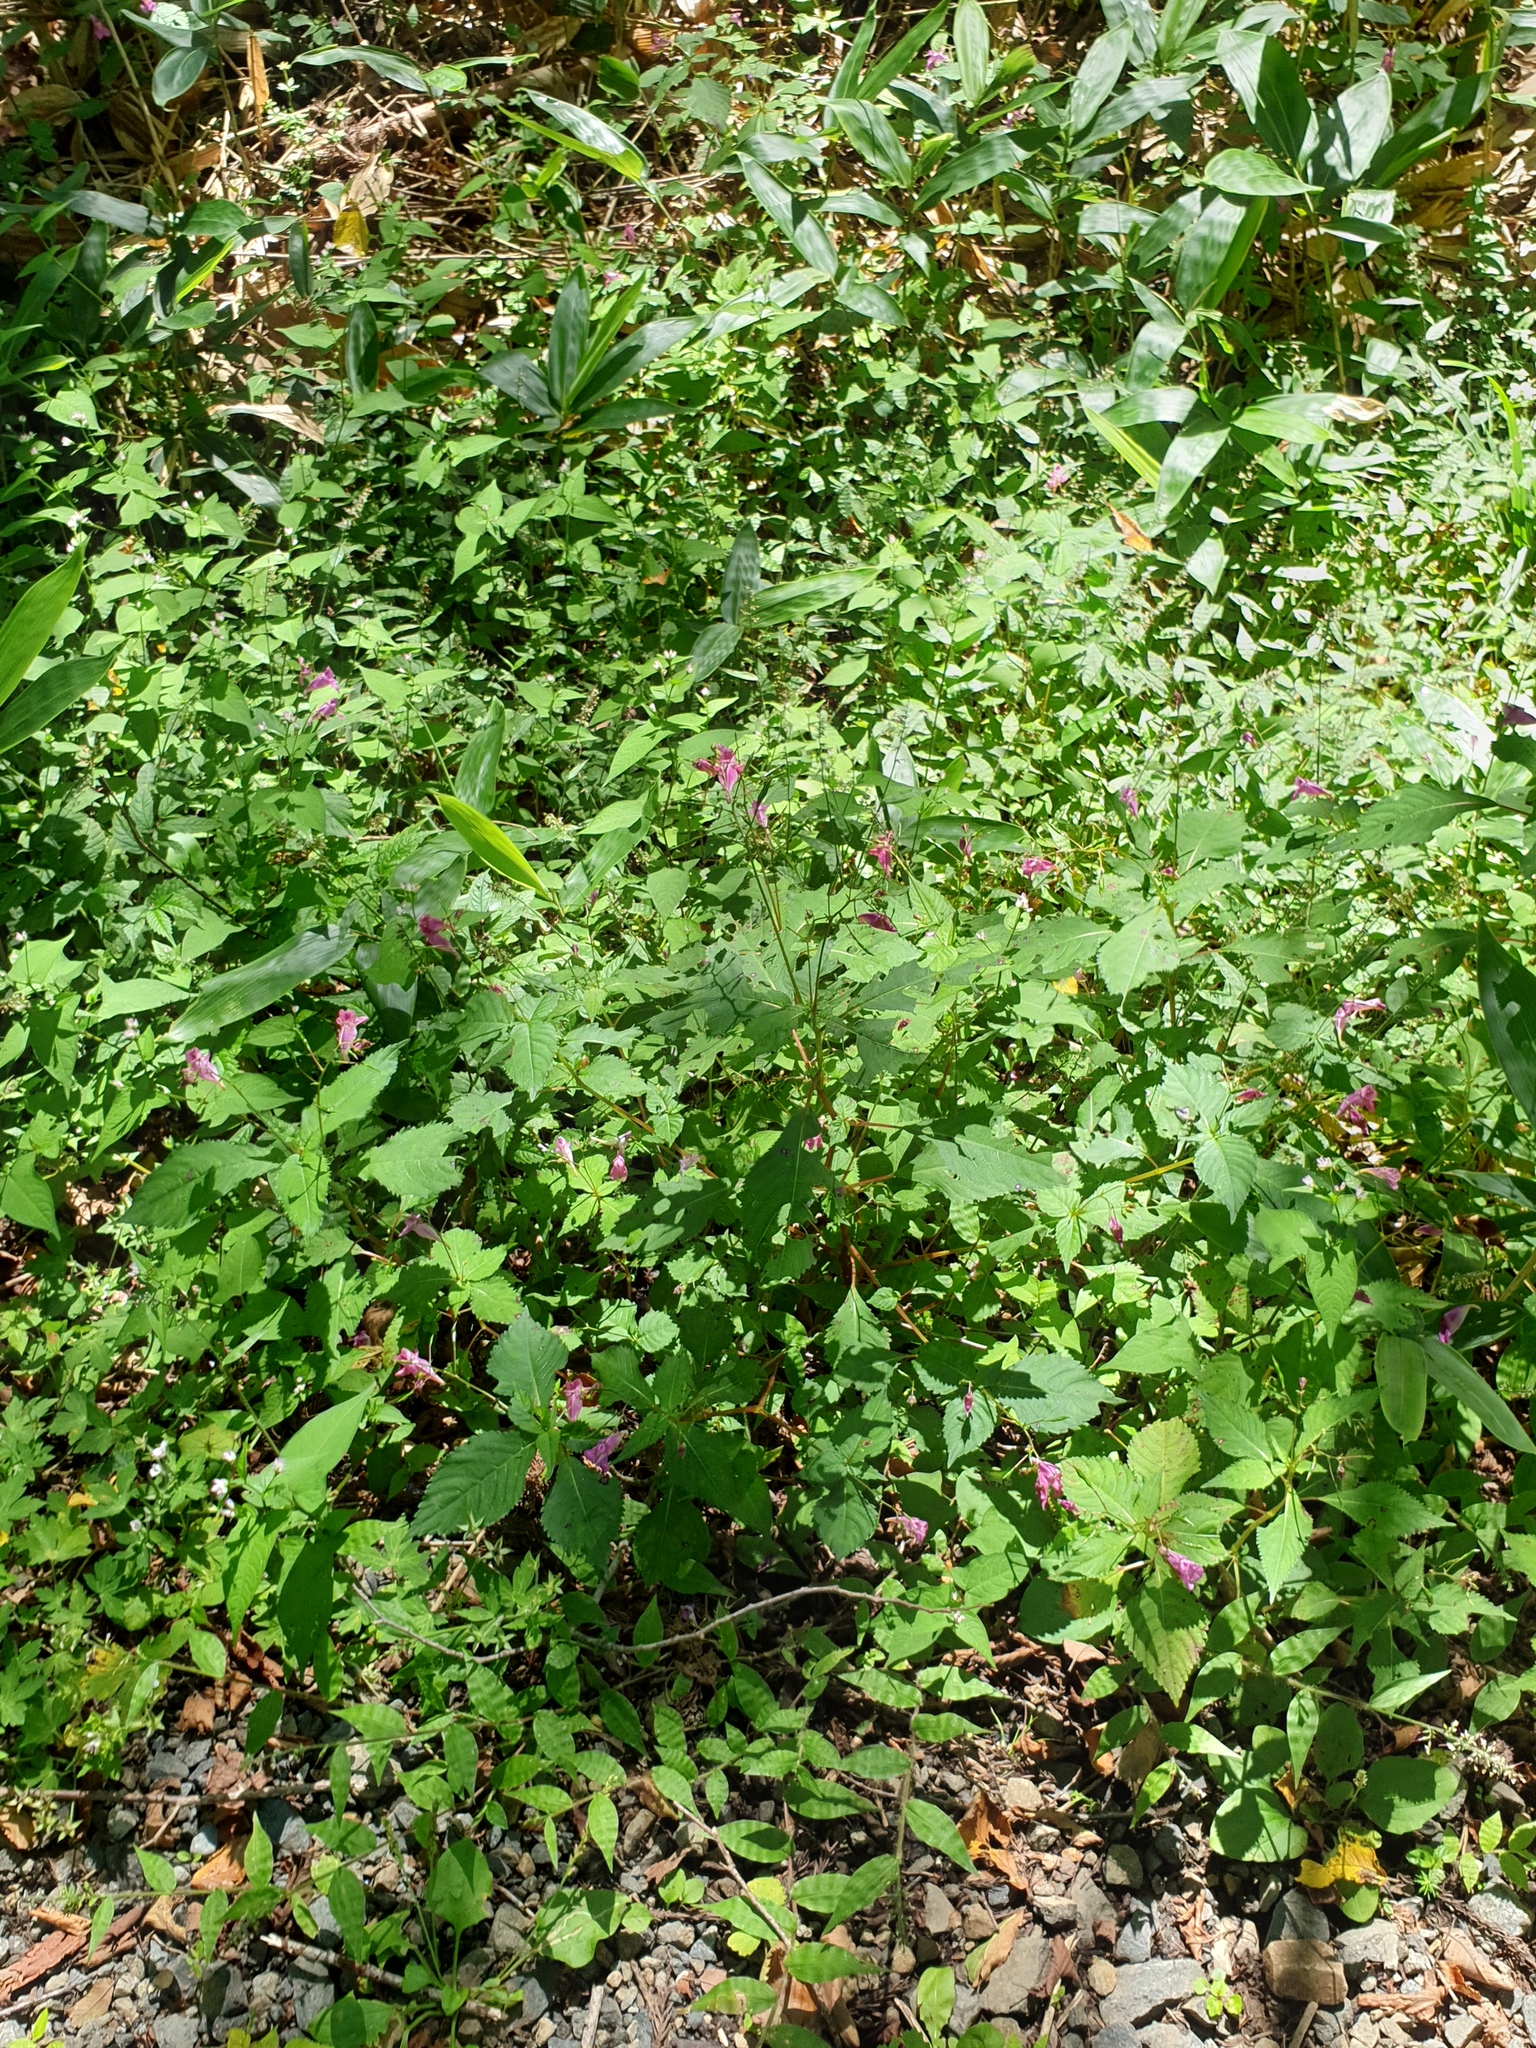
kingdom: Plantae
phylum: Tracheophyta
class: Magnoliopsida
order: Ericales
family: Balsaminaceae
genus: Impatiens
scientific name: Impatiens textorii
